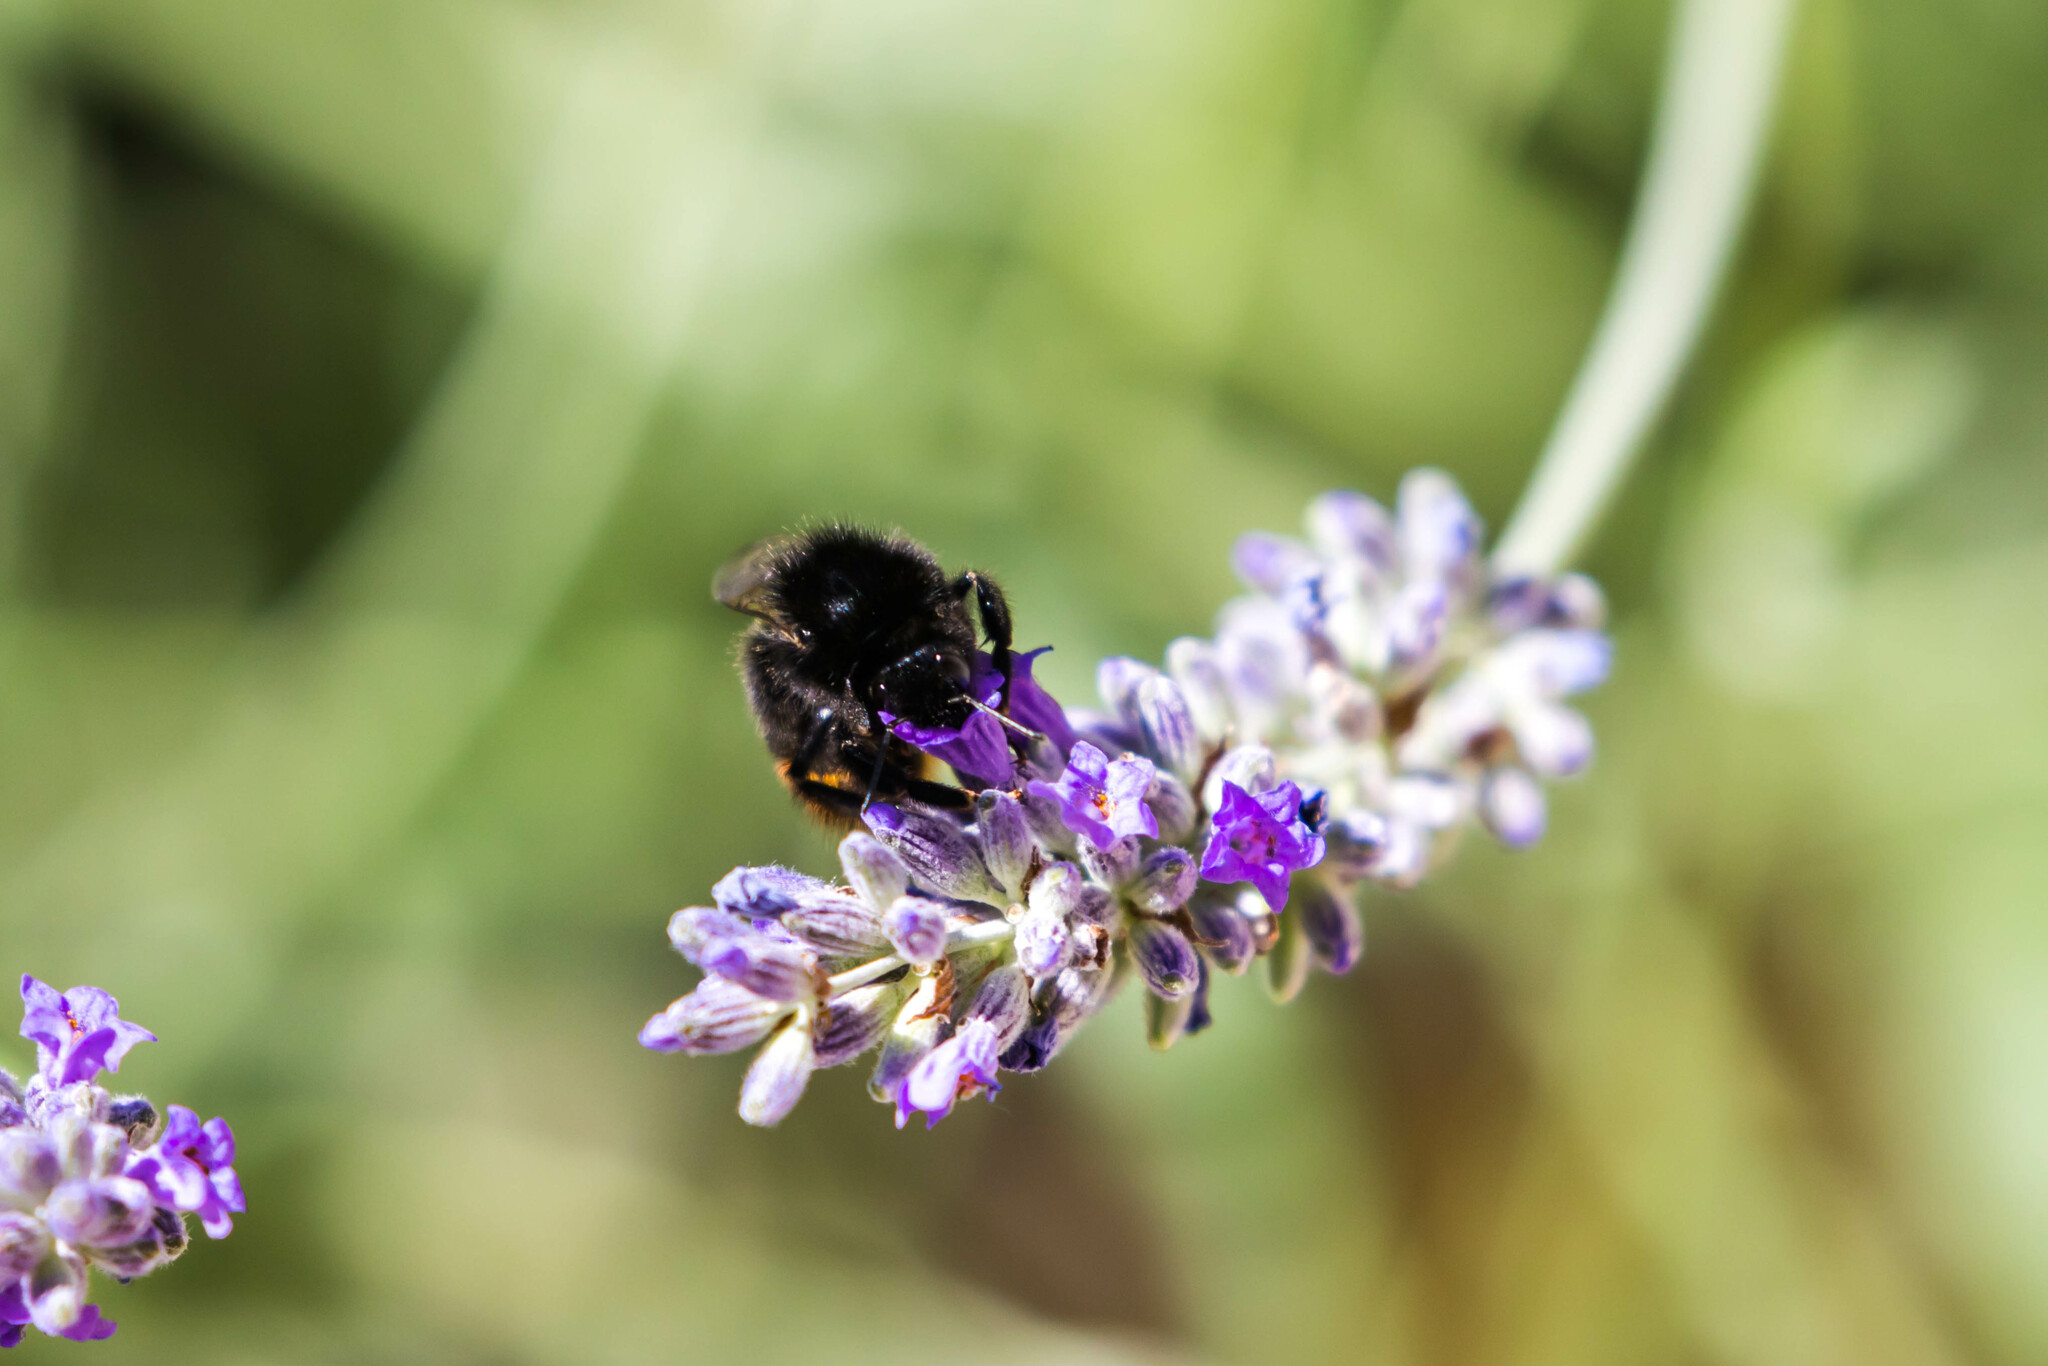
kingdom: Animalia
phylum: Arthropoda
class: Insecta
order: Hymenoptera
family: Apidae
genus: Bombus
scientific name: Bombus lapidarius
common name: Large red-tailed humble-bee
